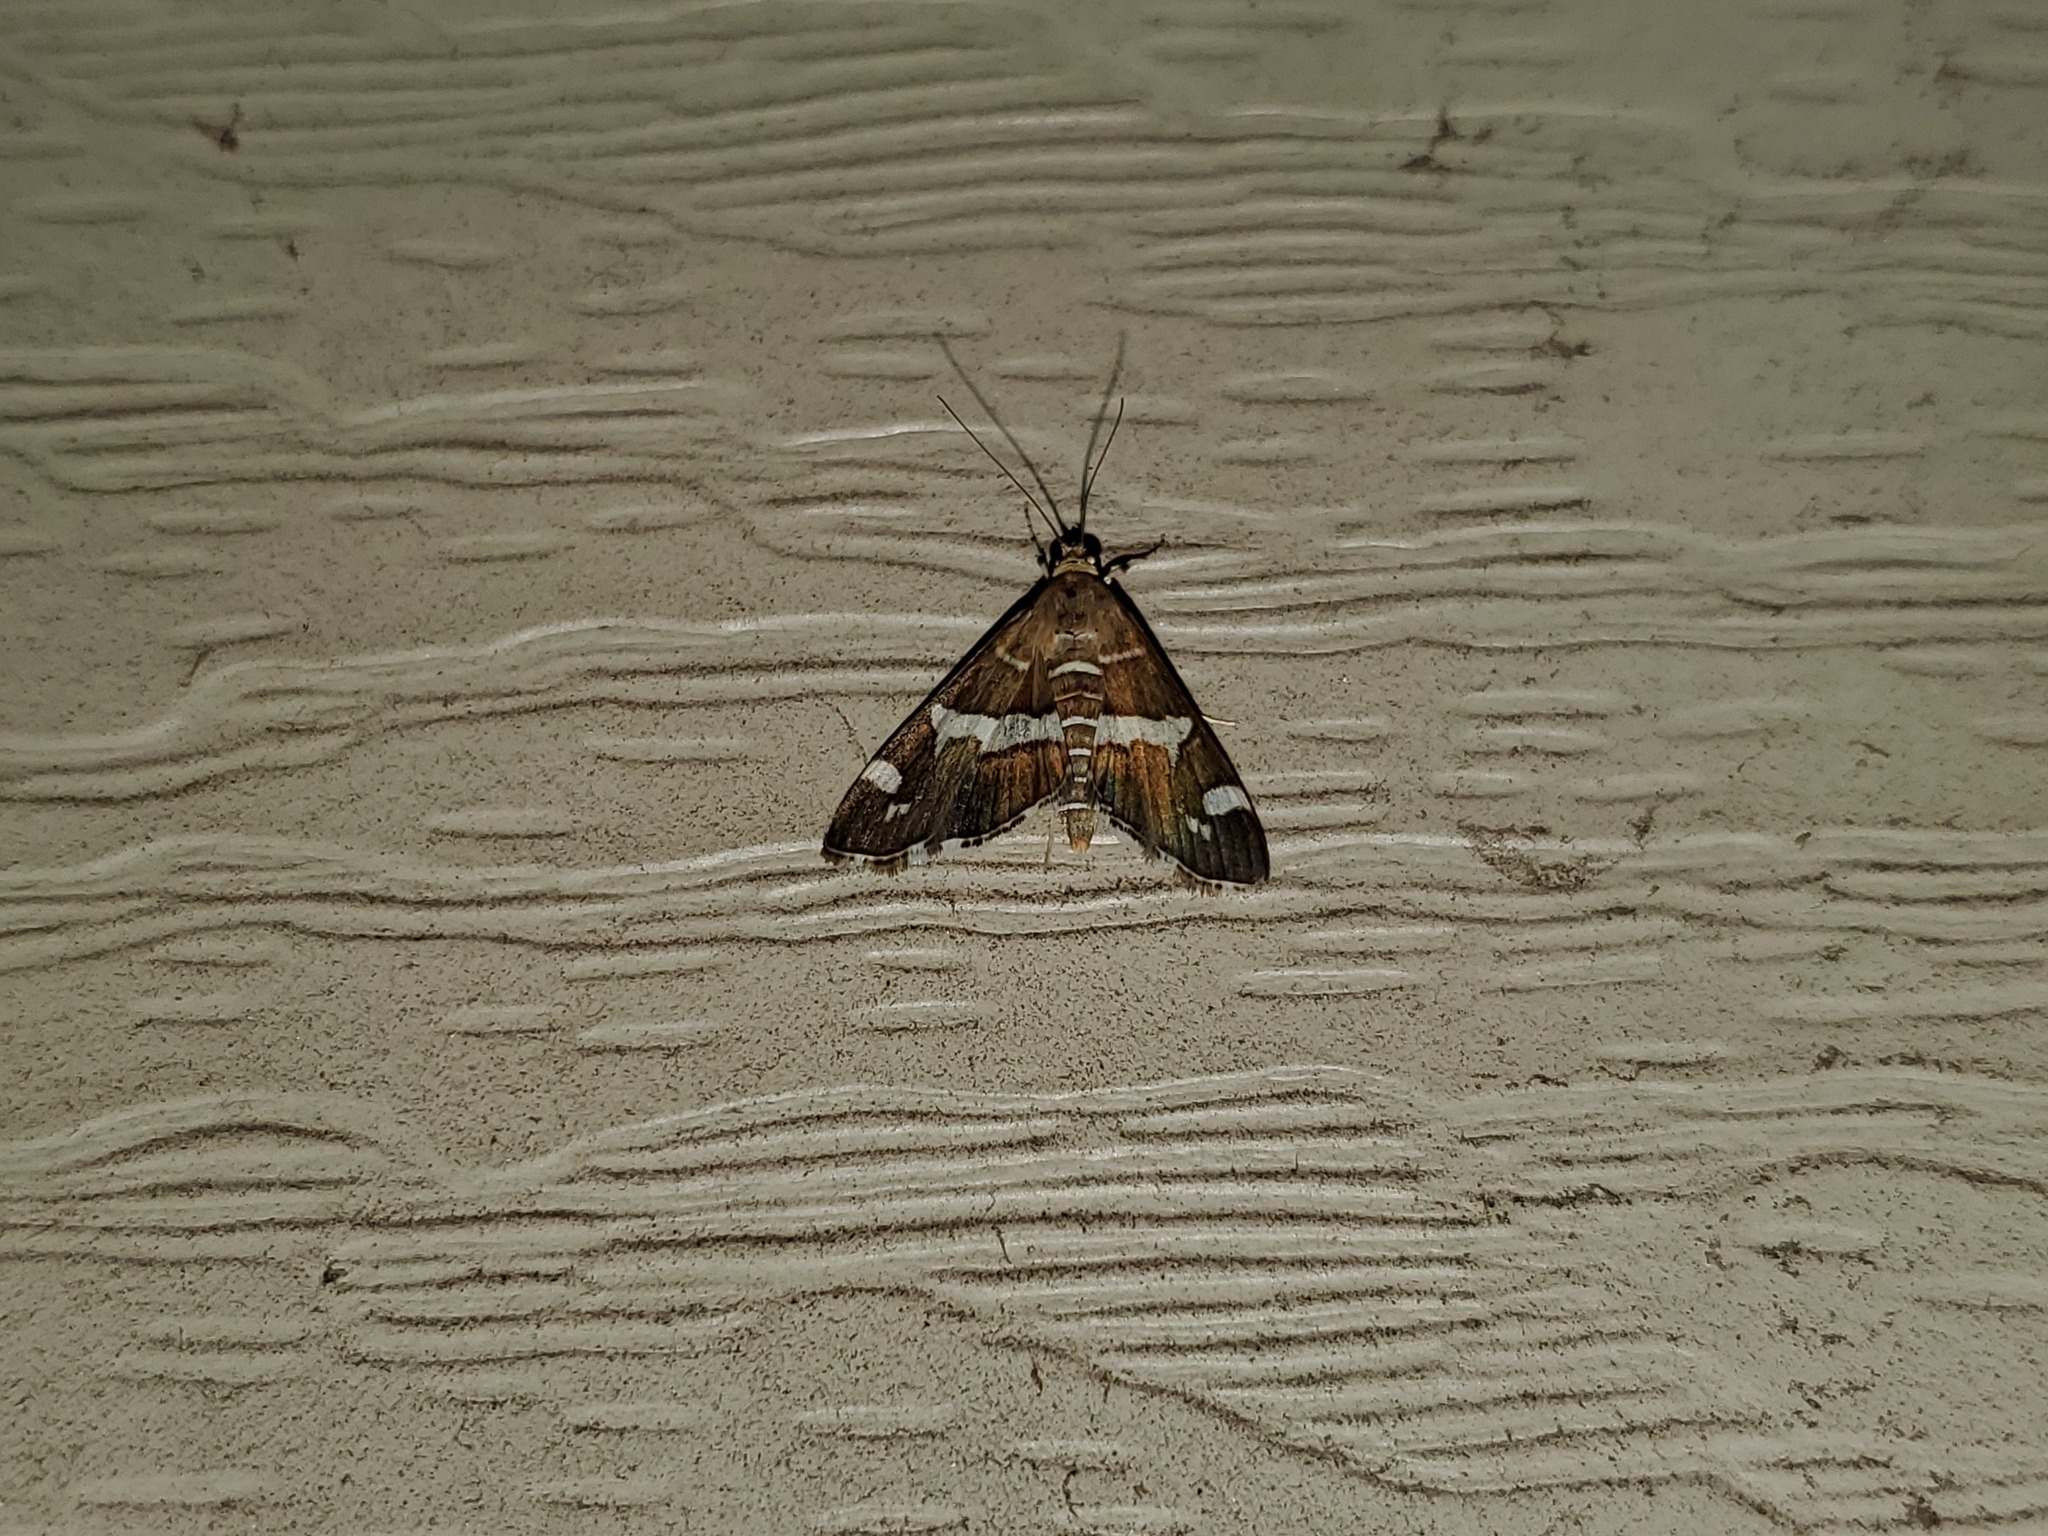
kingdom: Animalia
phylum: Arthropoda
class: Insecta
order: Lepidoptera
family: Crambidae
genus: Spoladea
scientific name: Spoladea recurvalis
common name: Beet webworm moth
